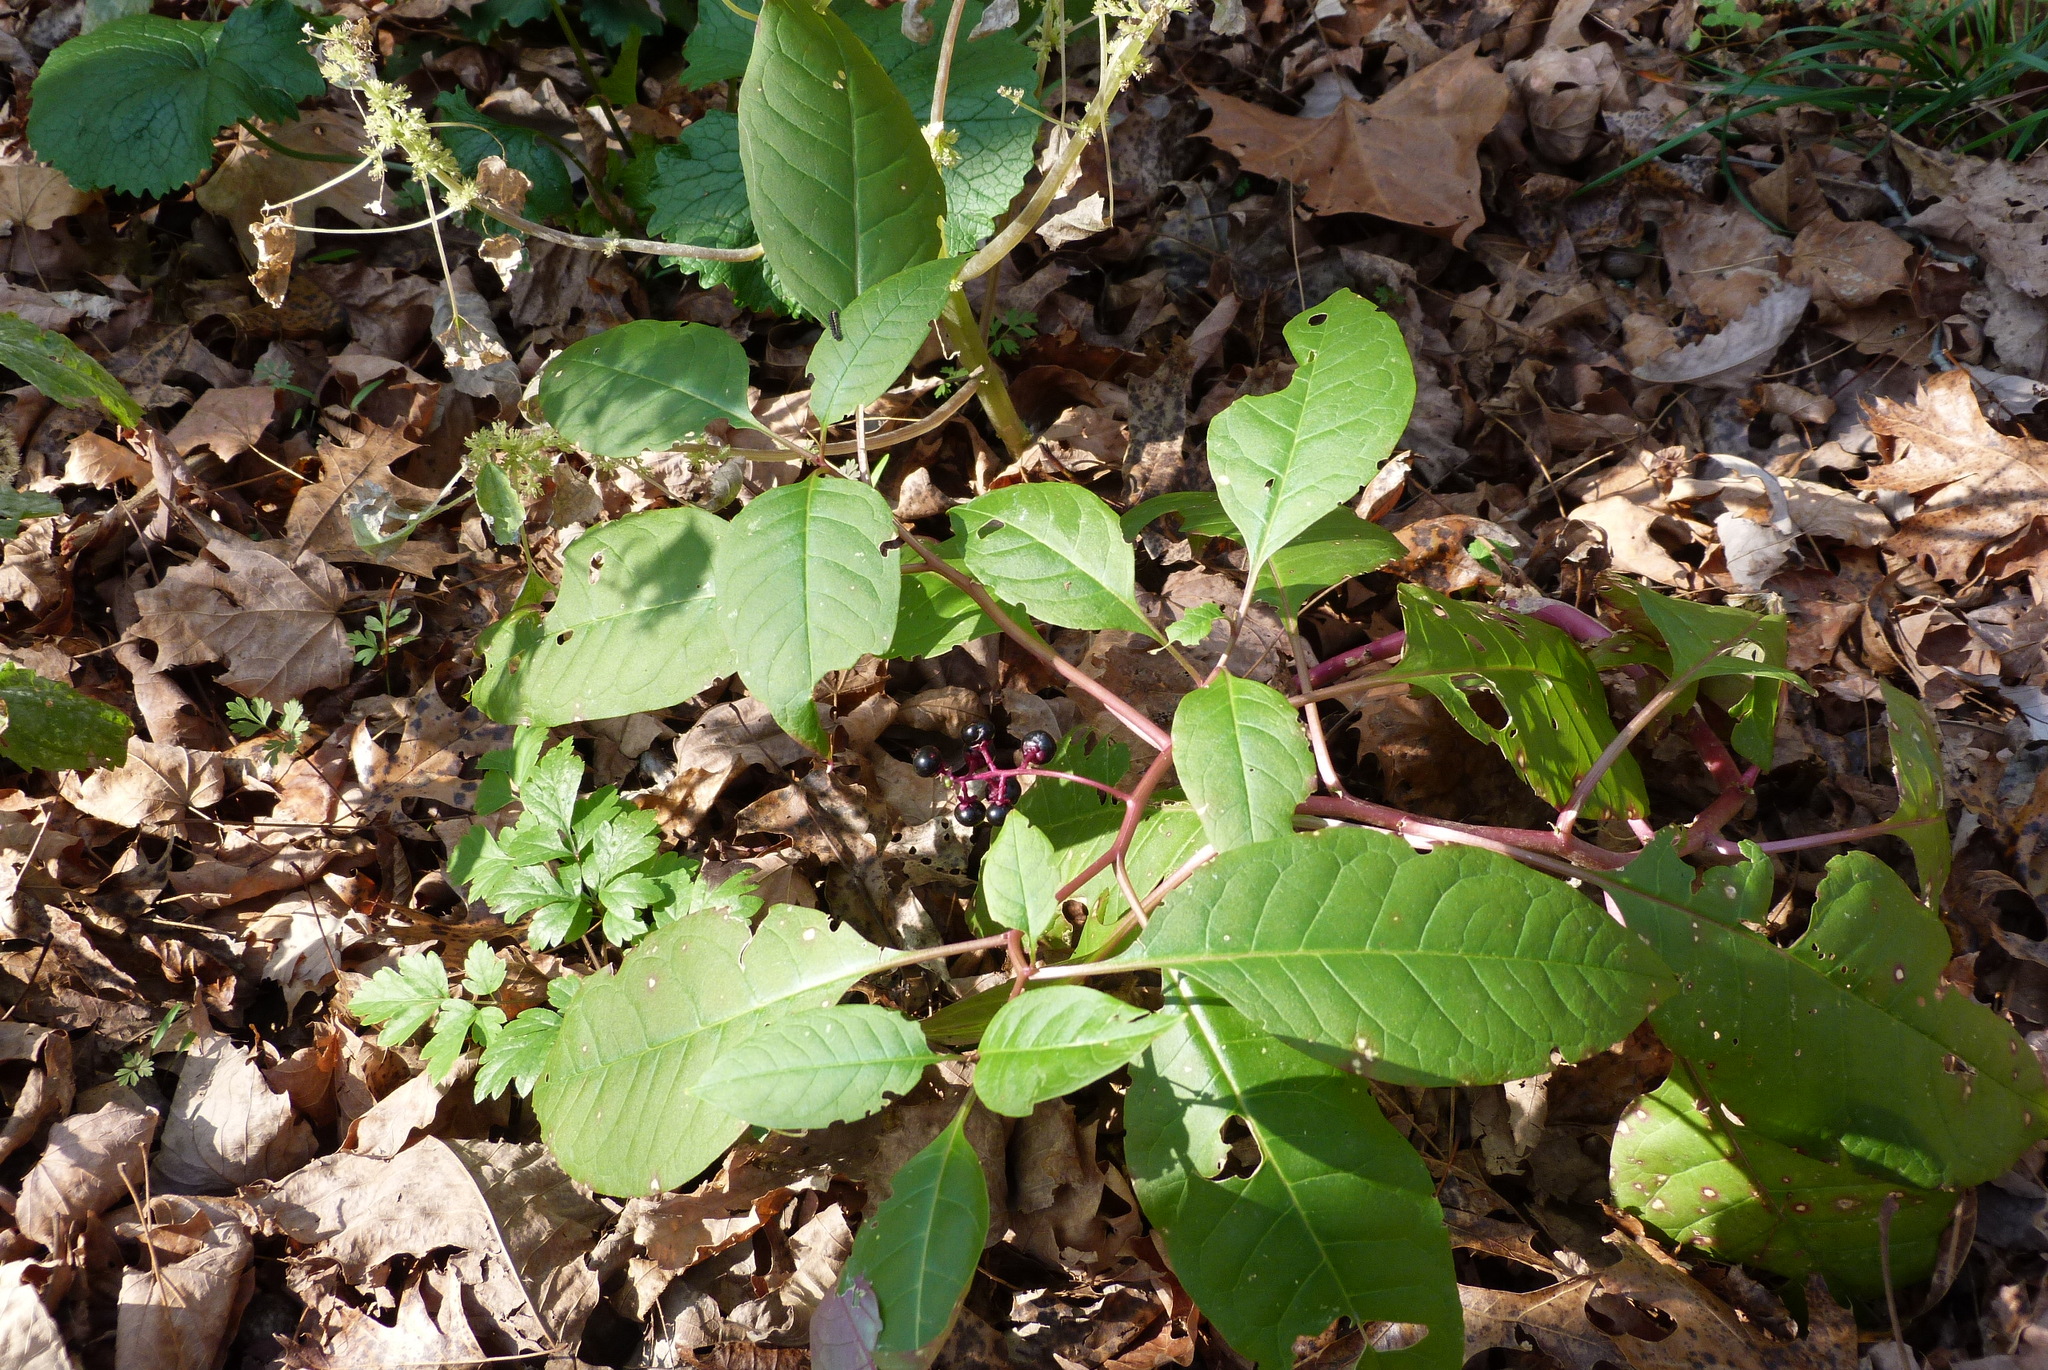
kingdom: Plantae
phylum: Tracheophyta
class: Magnoliopsida
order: Caryophyllales
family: Phytolaccaceae
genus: Phytolacca
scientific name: Phytolacca americana
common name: American pokeweed
